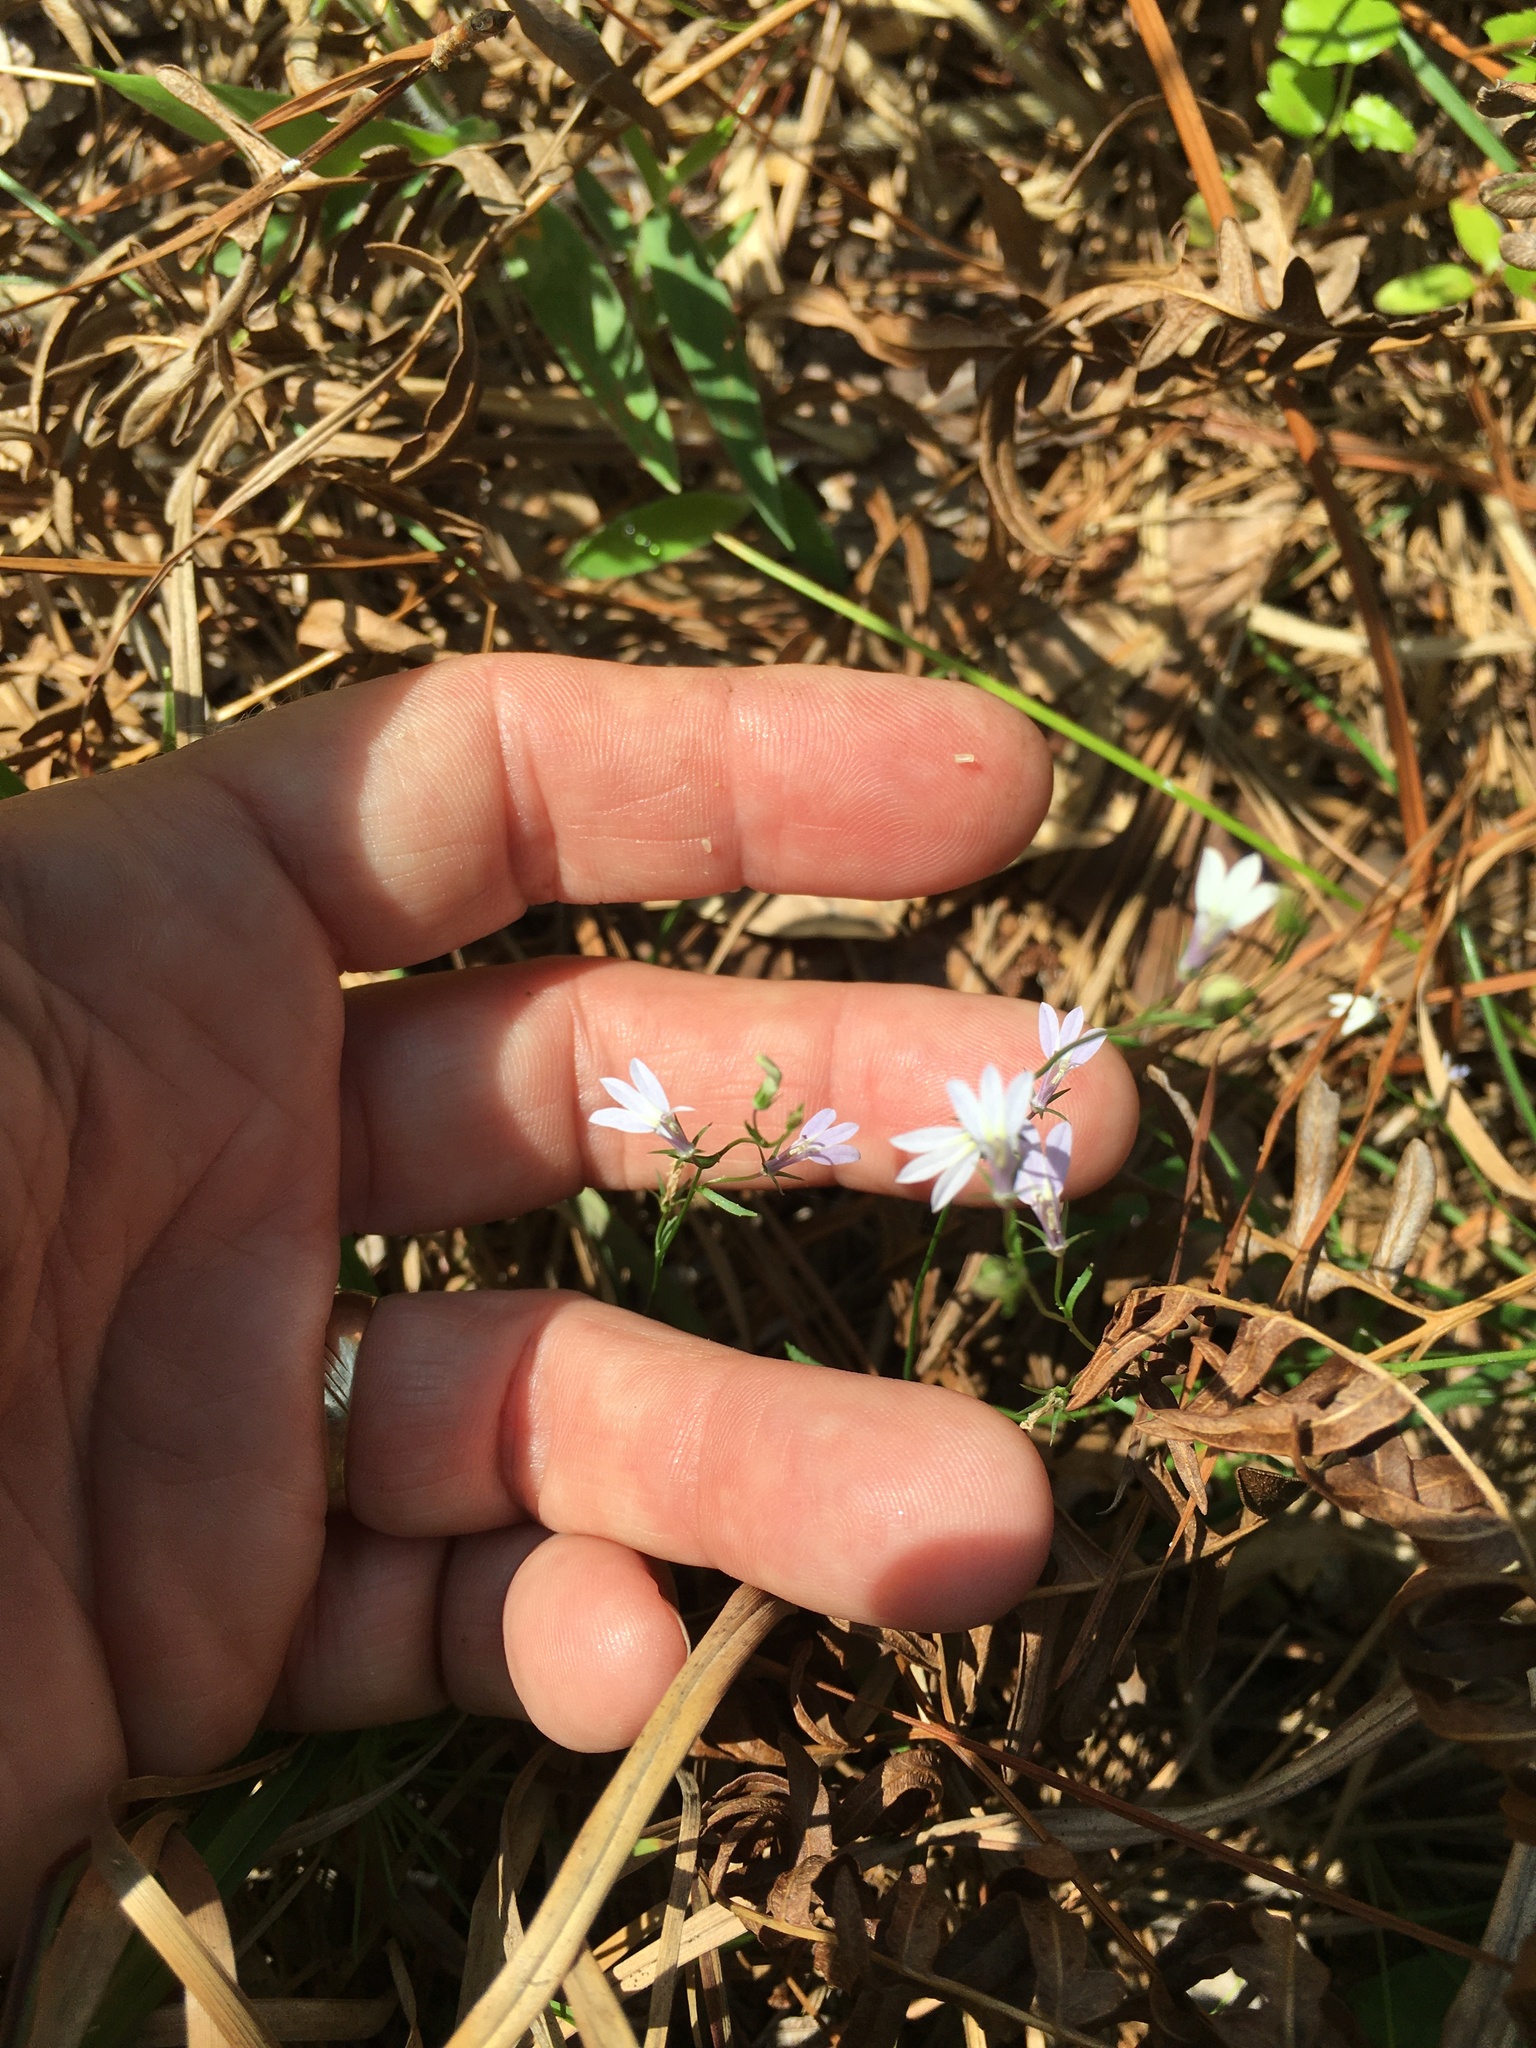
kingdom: Plantae
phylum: Tracheophyta
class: Magnoliopsida
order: Asterales
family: Campanulaceae
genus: Lobelia
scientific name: Lobelia nuttallii
